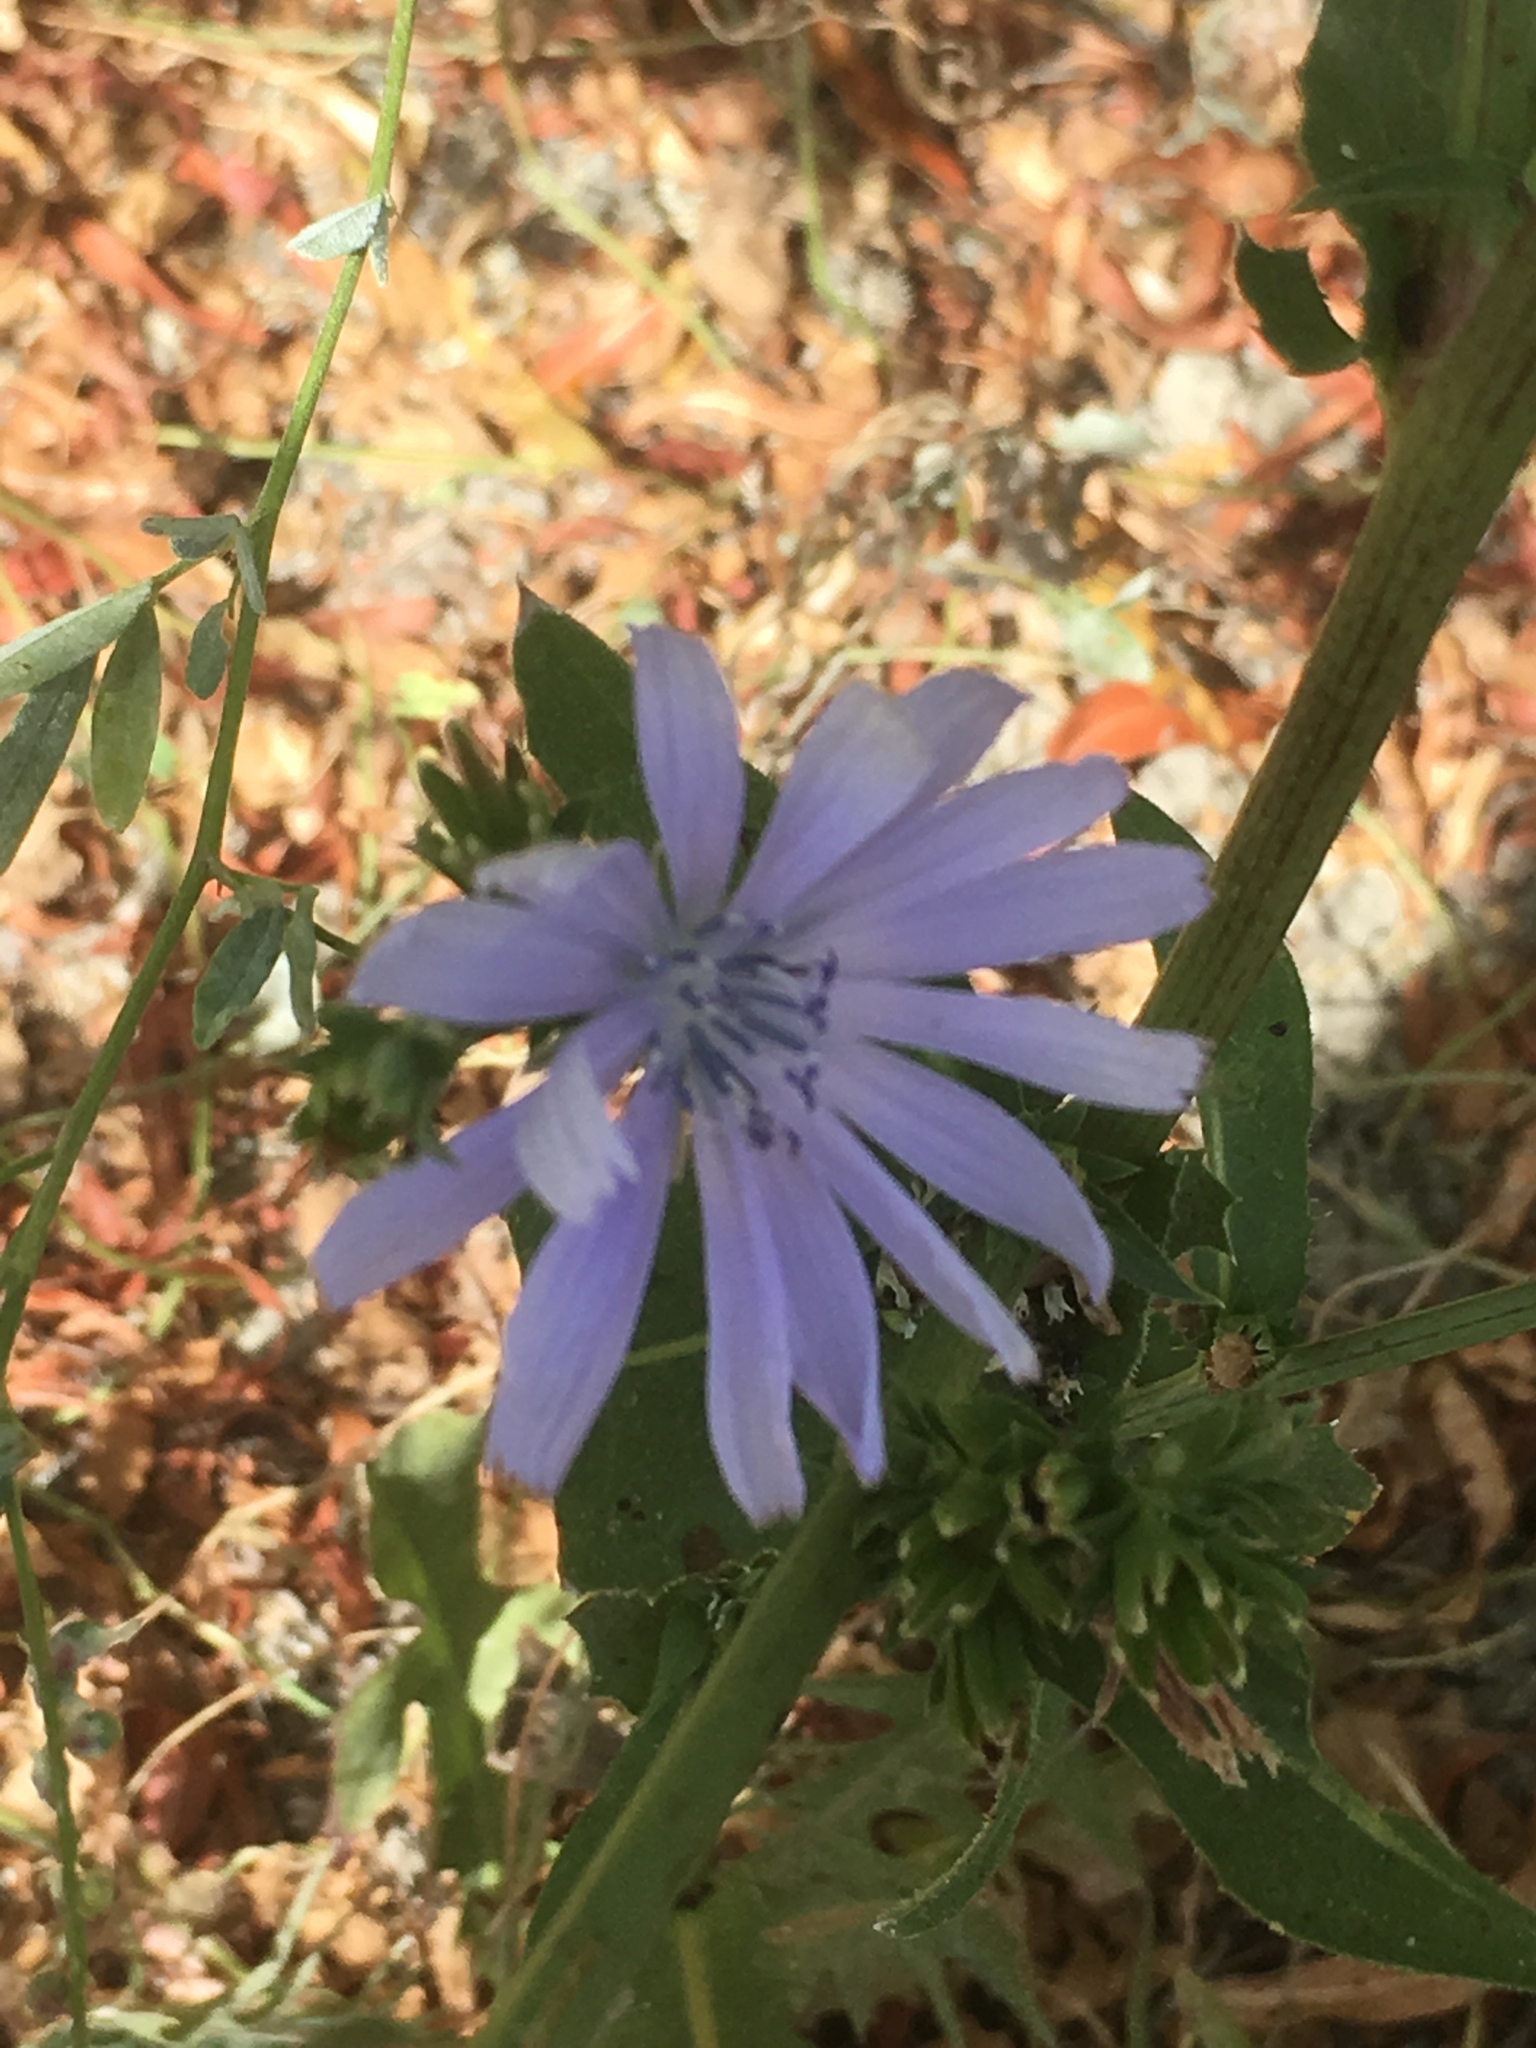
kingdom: Plantae
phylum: Tracheophyta
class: Magnoliopsida
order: Asterales
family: Asteraceae
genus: Cichorium
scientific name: Cichorium intybus
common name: Chicory
